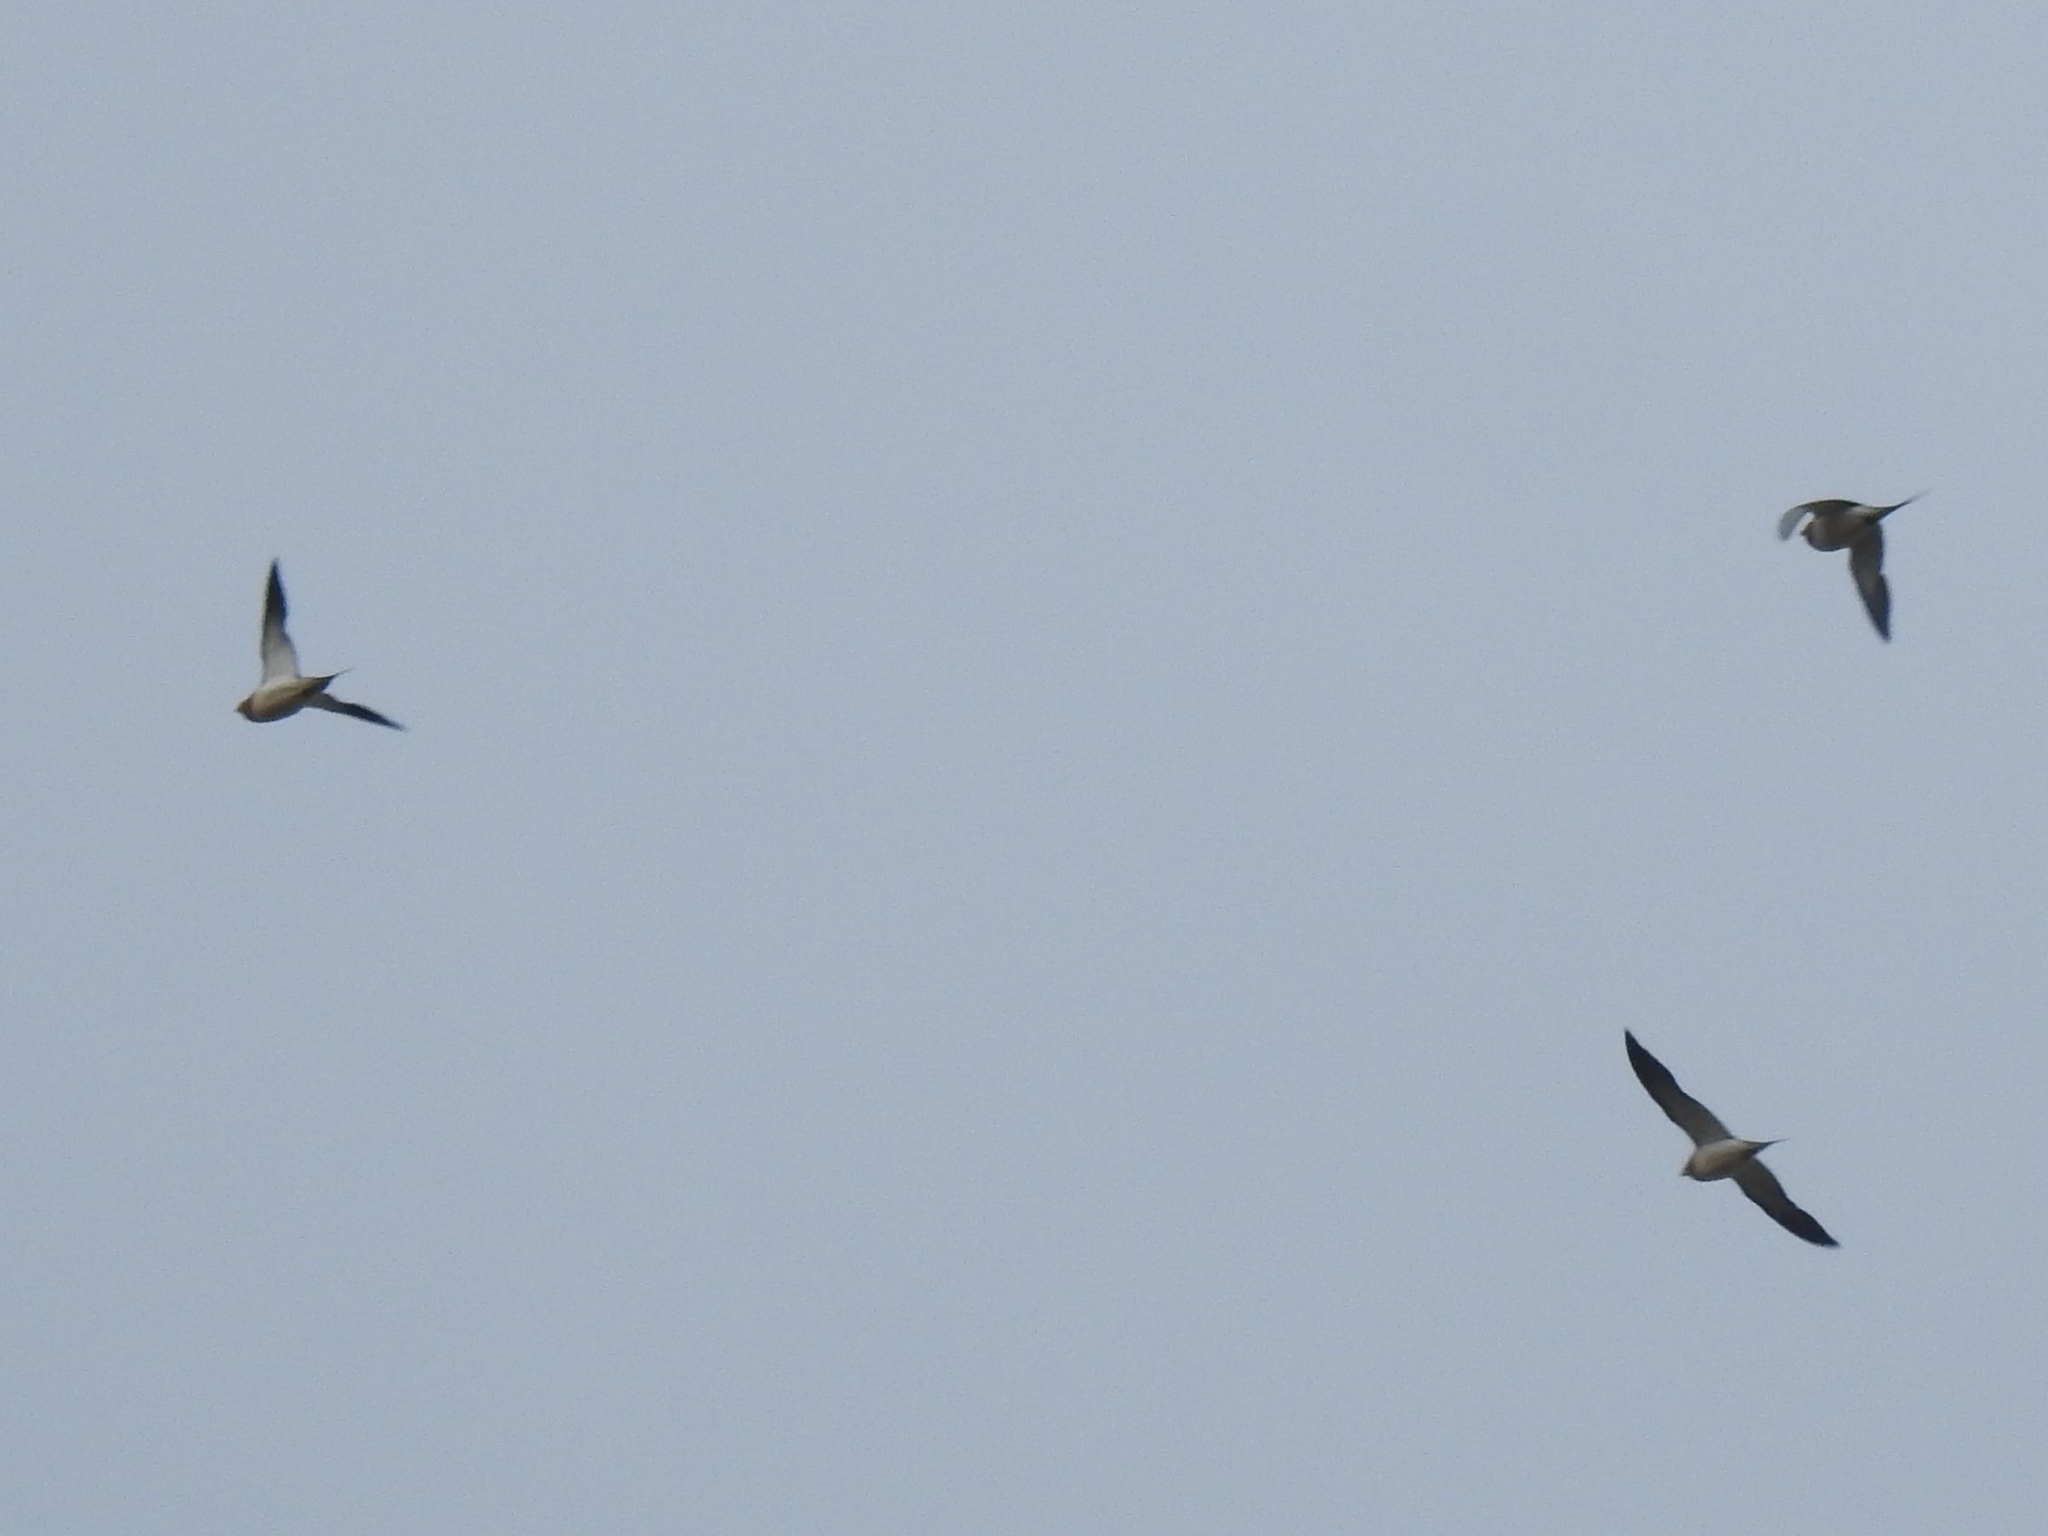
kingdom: Animalia
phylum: Chordata
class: Aves
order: Pteroclidiformes
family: Pteroclididae
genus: Pterocles
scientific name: Pterocles alchata
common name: Pin-tailed sandgrouse
